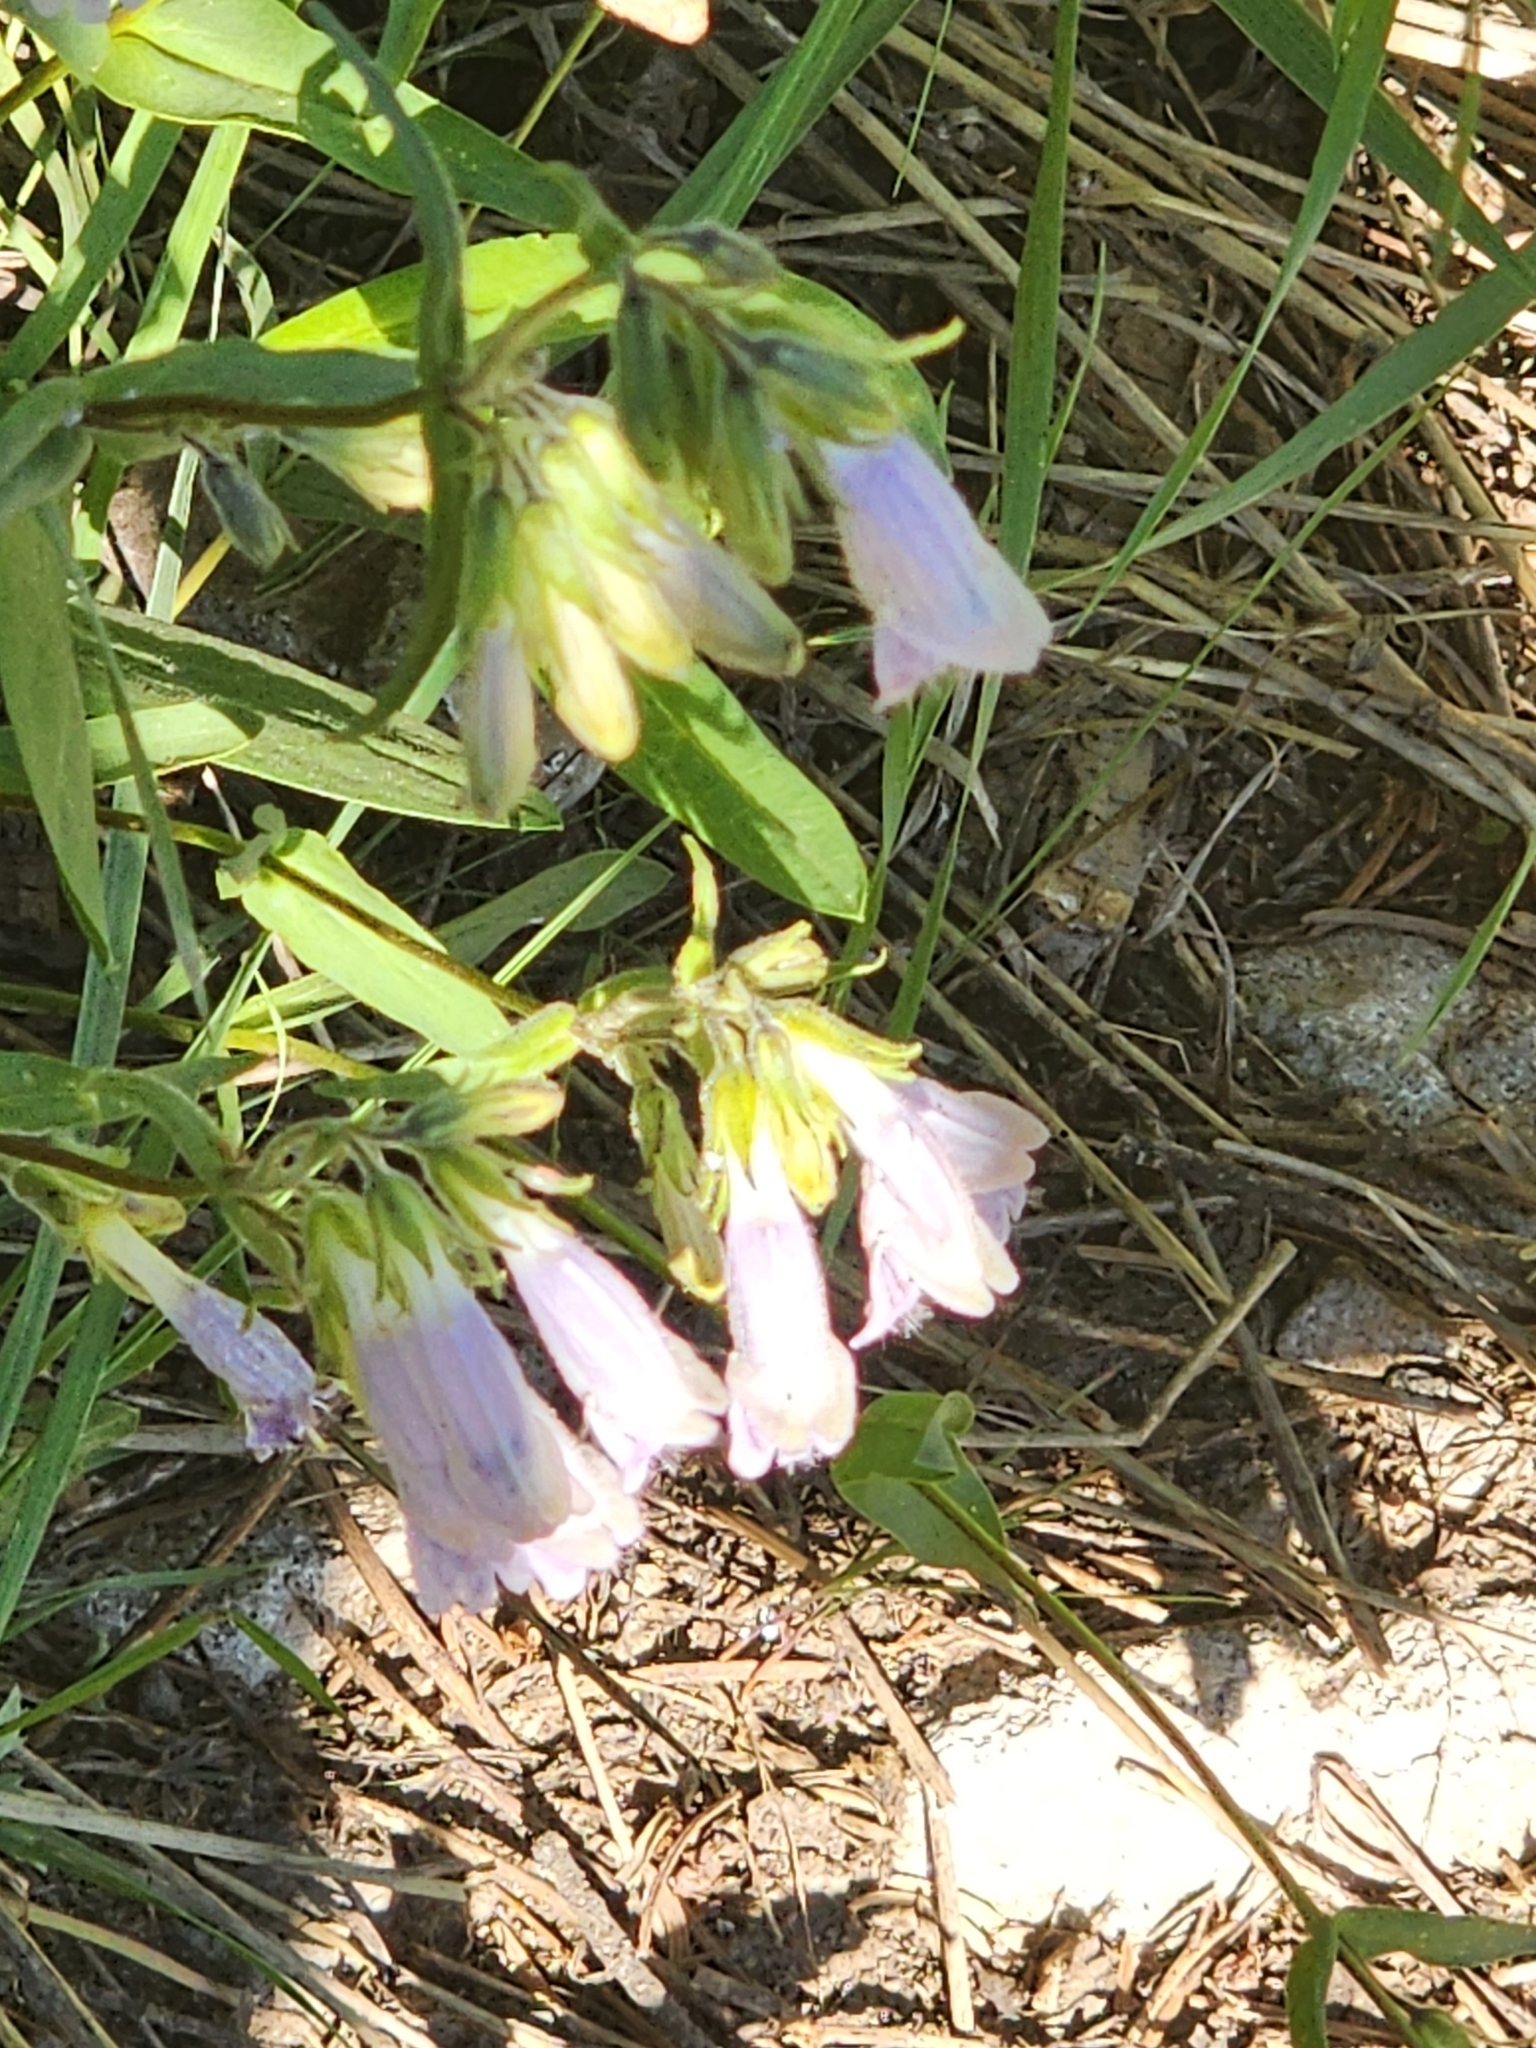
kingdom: Plantae
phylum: Tracheophyta
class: Magnoliopsida
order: Lamiales
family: Plantaginaceae
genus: Penstemon
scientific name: Penstemon whippleanus
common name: Whipple's penstemon
